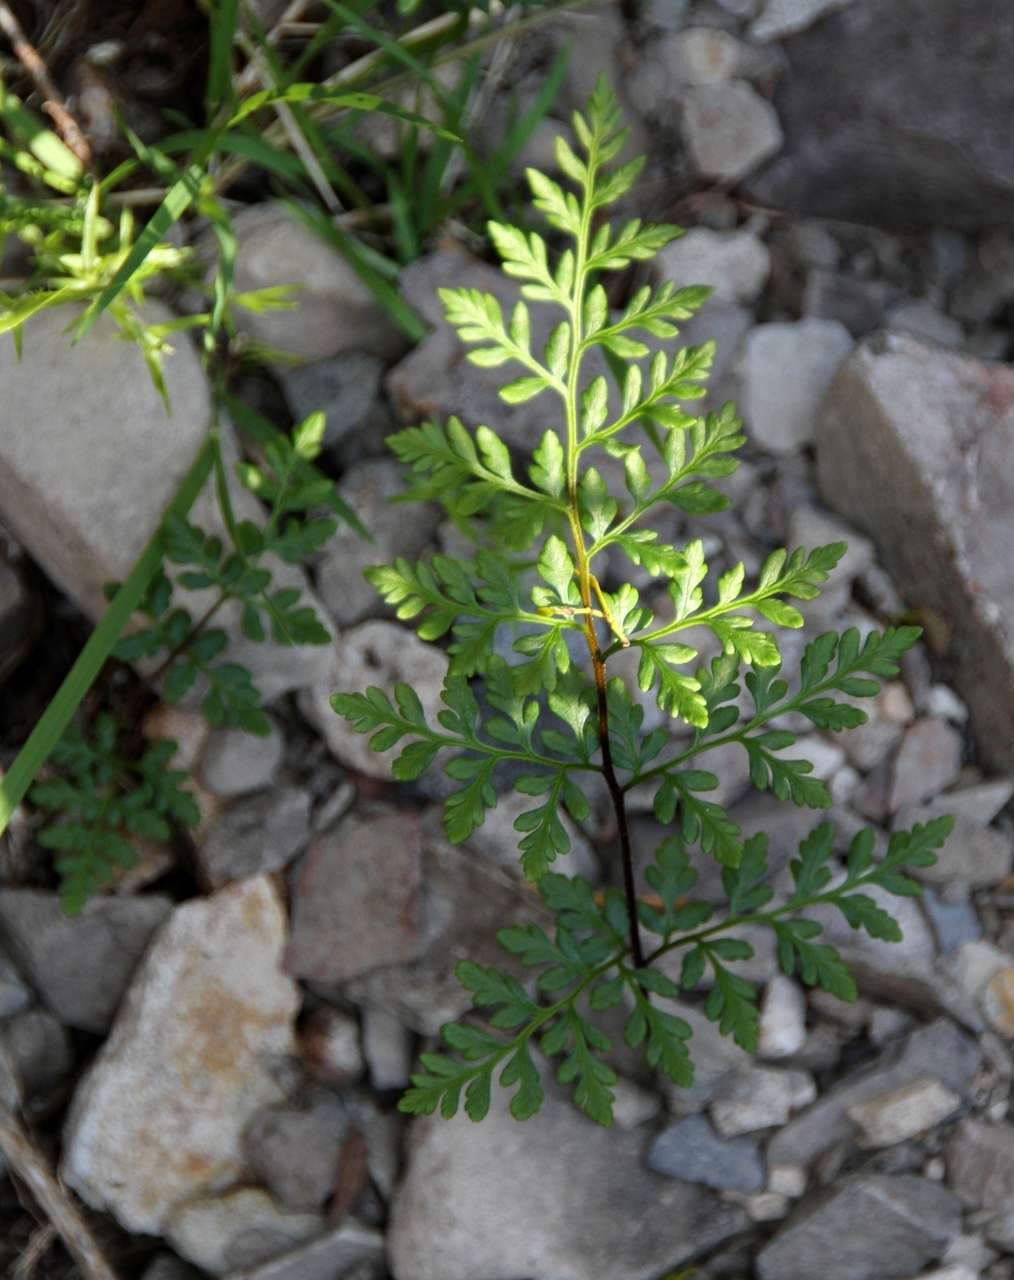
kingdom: Plantae
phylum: Tracheophyta
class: Polypodiopsida
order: Polypodiales
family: Pteridaceae
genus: Cheilanthes
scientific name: Cheilanthes austrotenuifolia
